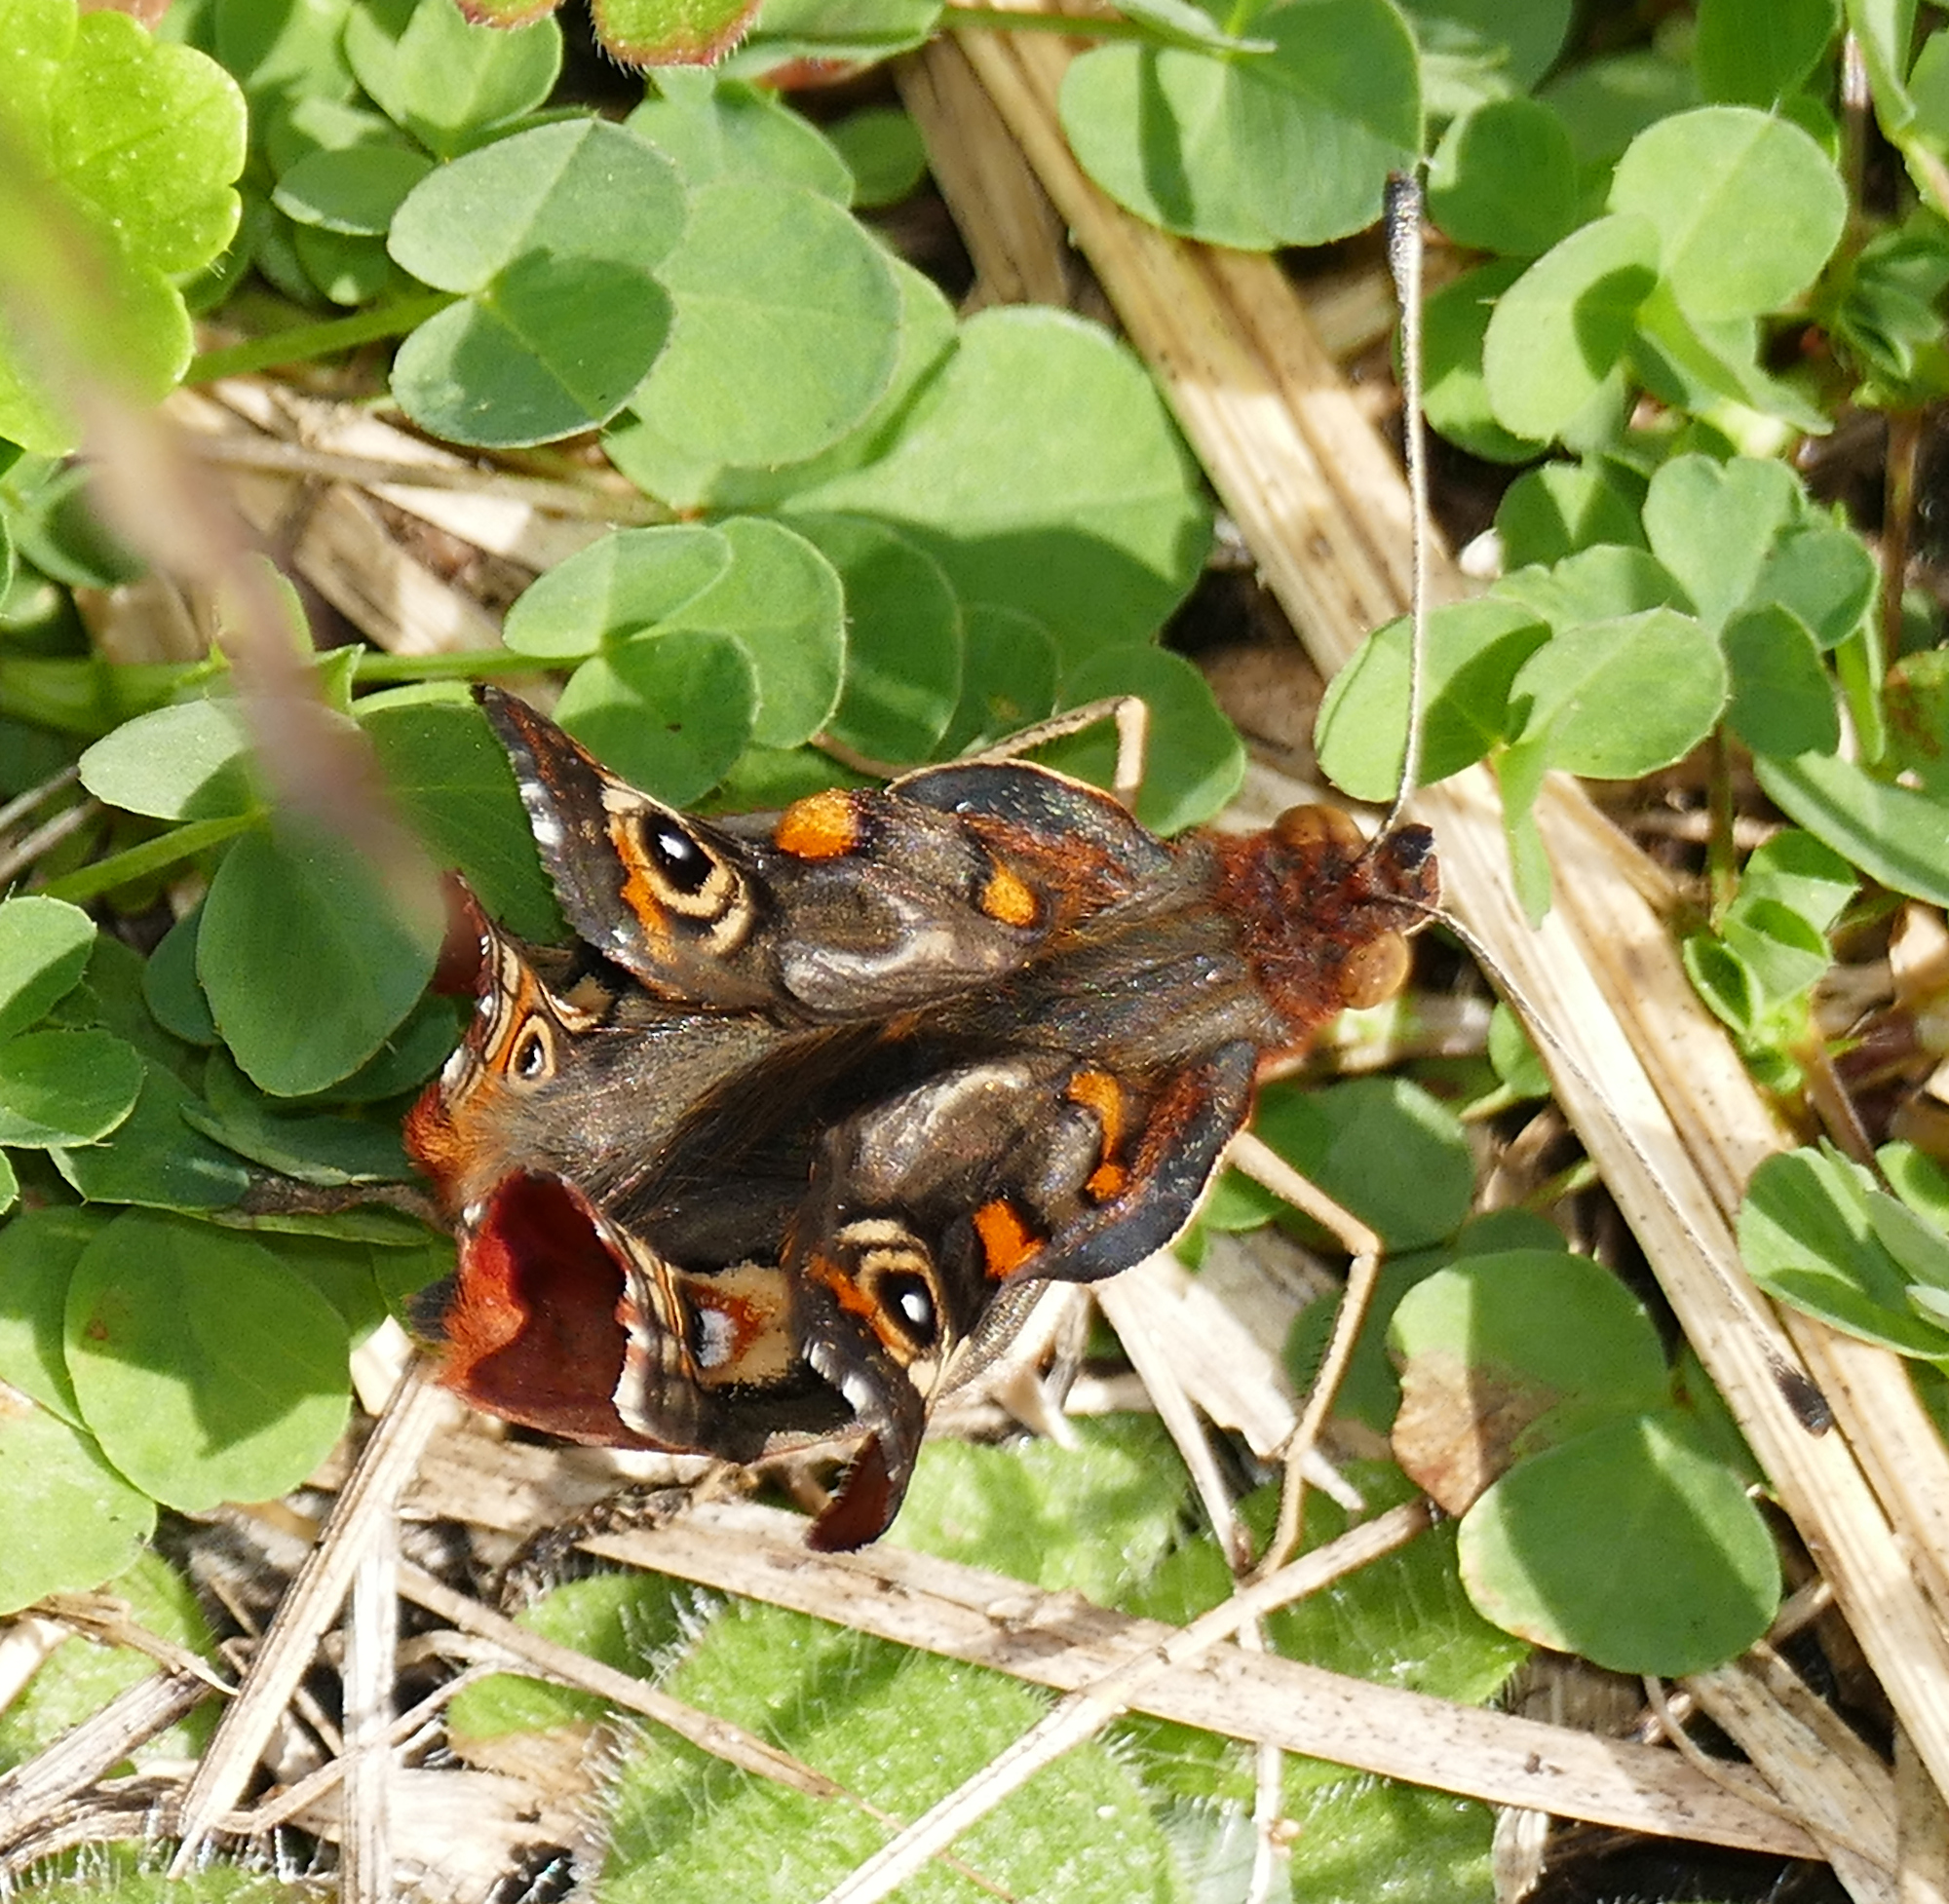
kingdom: Animalia
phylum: Arthropoda
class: Insecta
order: Lepidoptera
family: Nymphalidae
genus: Junonia
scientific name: Junonia coenia
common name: Common buckeye
